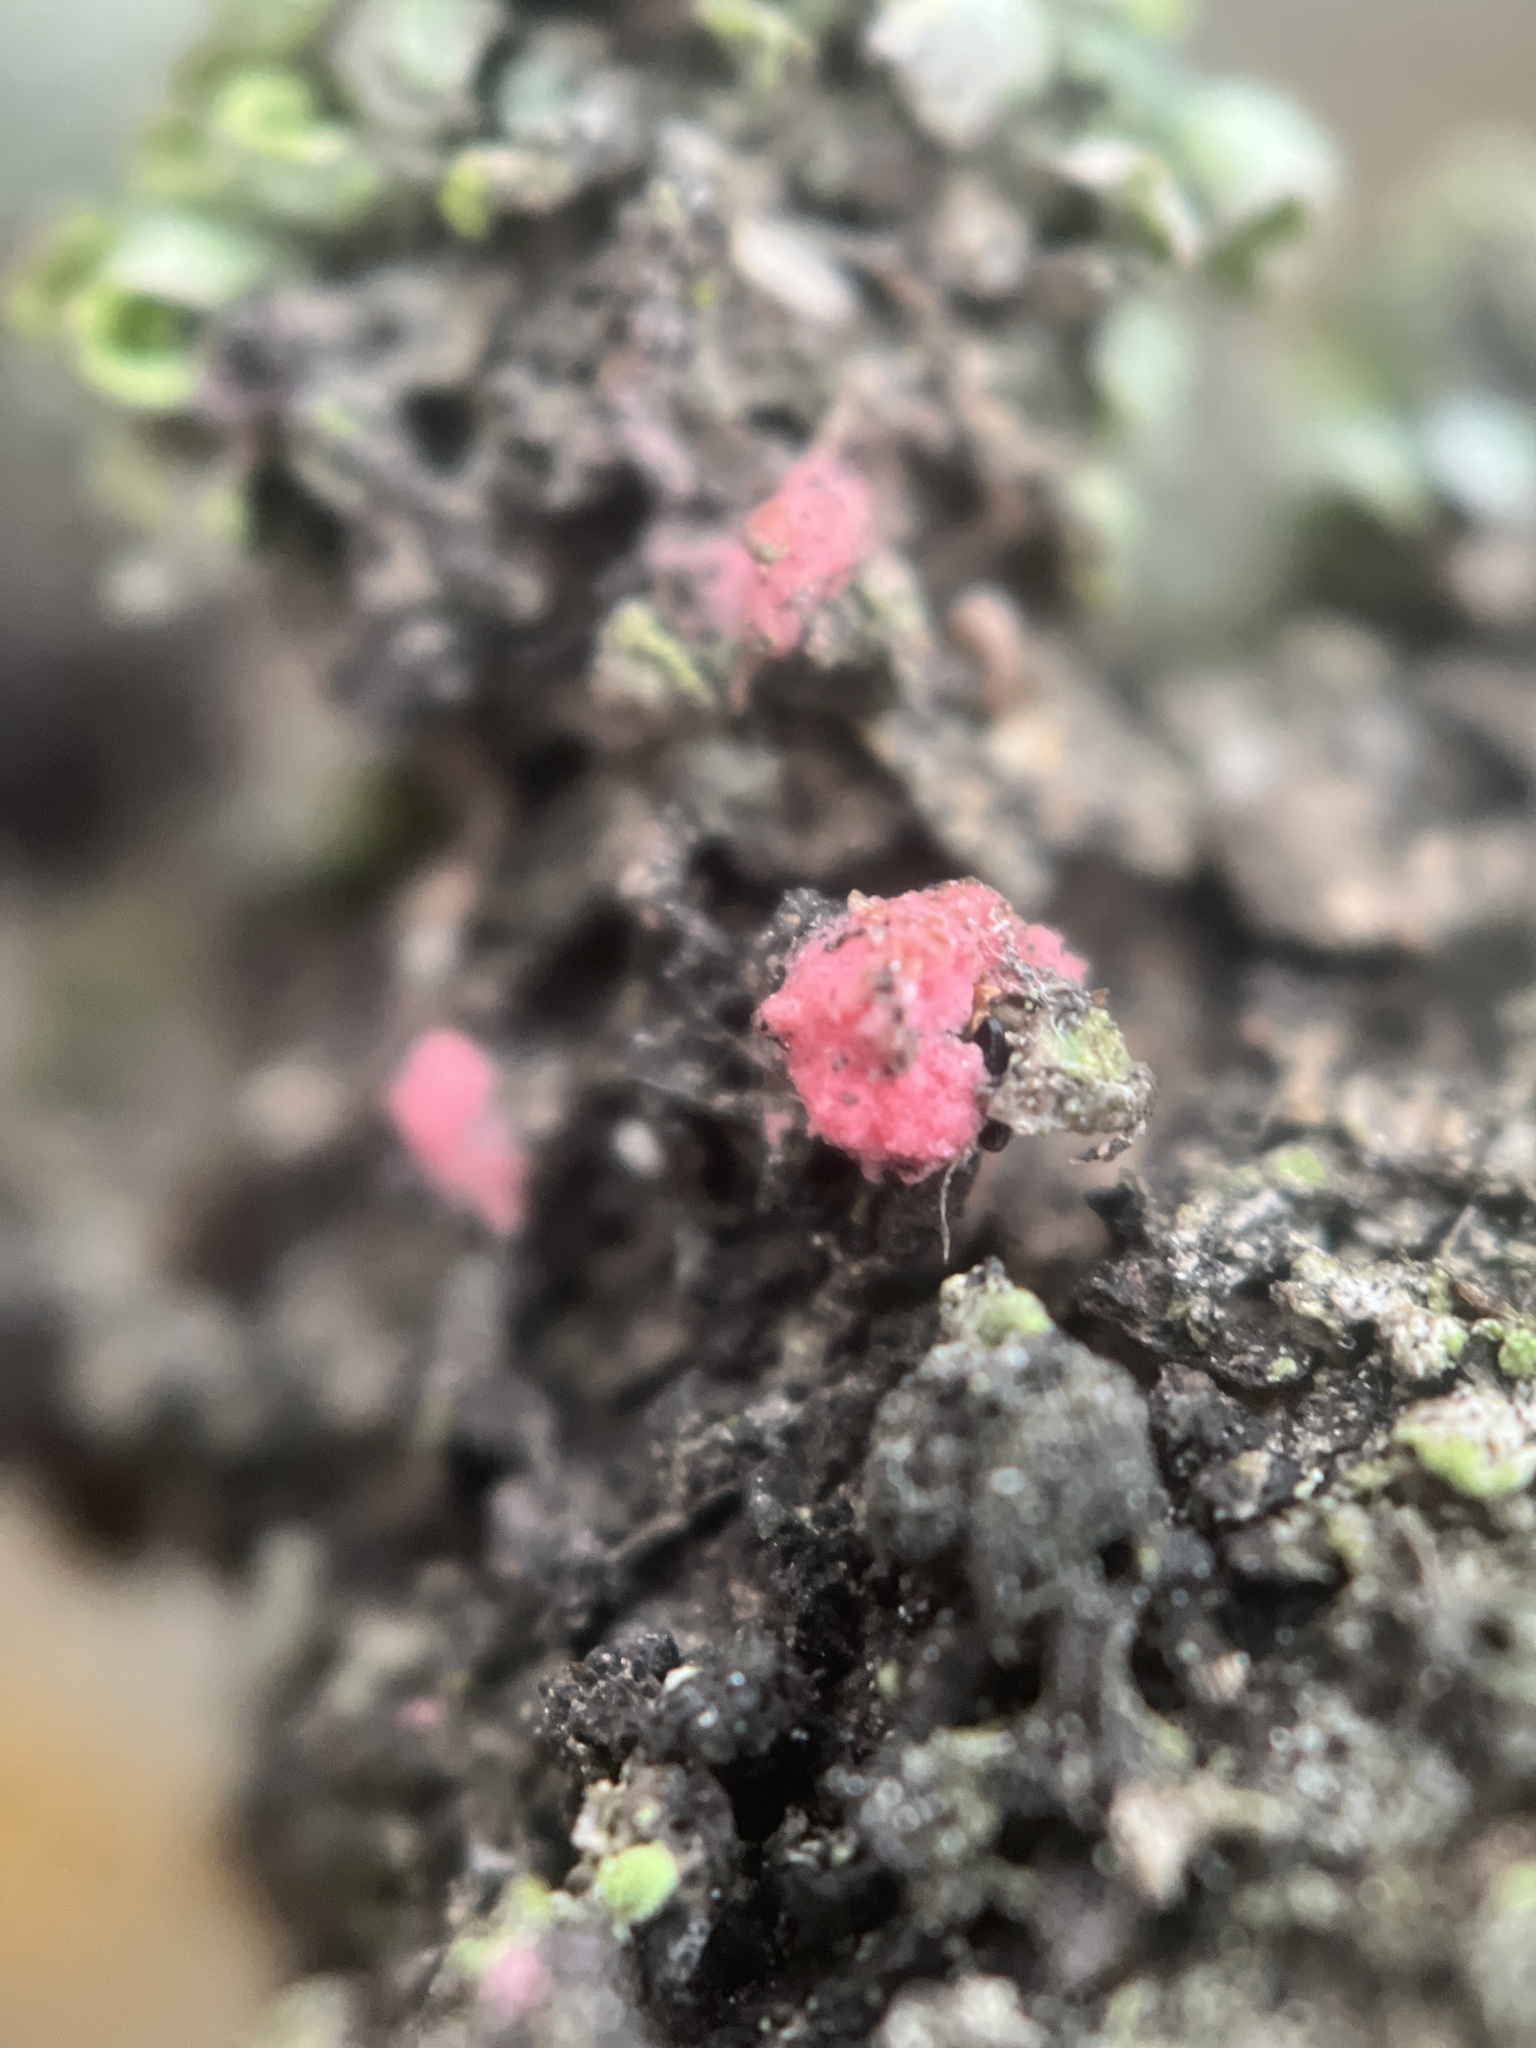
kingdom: Fungi
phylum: Ascomycota
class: Sordariomycetes
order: Hypocreales
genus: Illosporiopsis
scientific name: Illosporiopsis christiansenii
